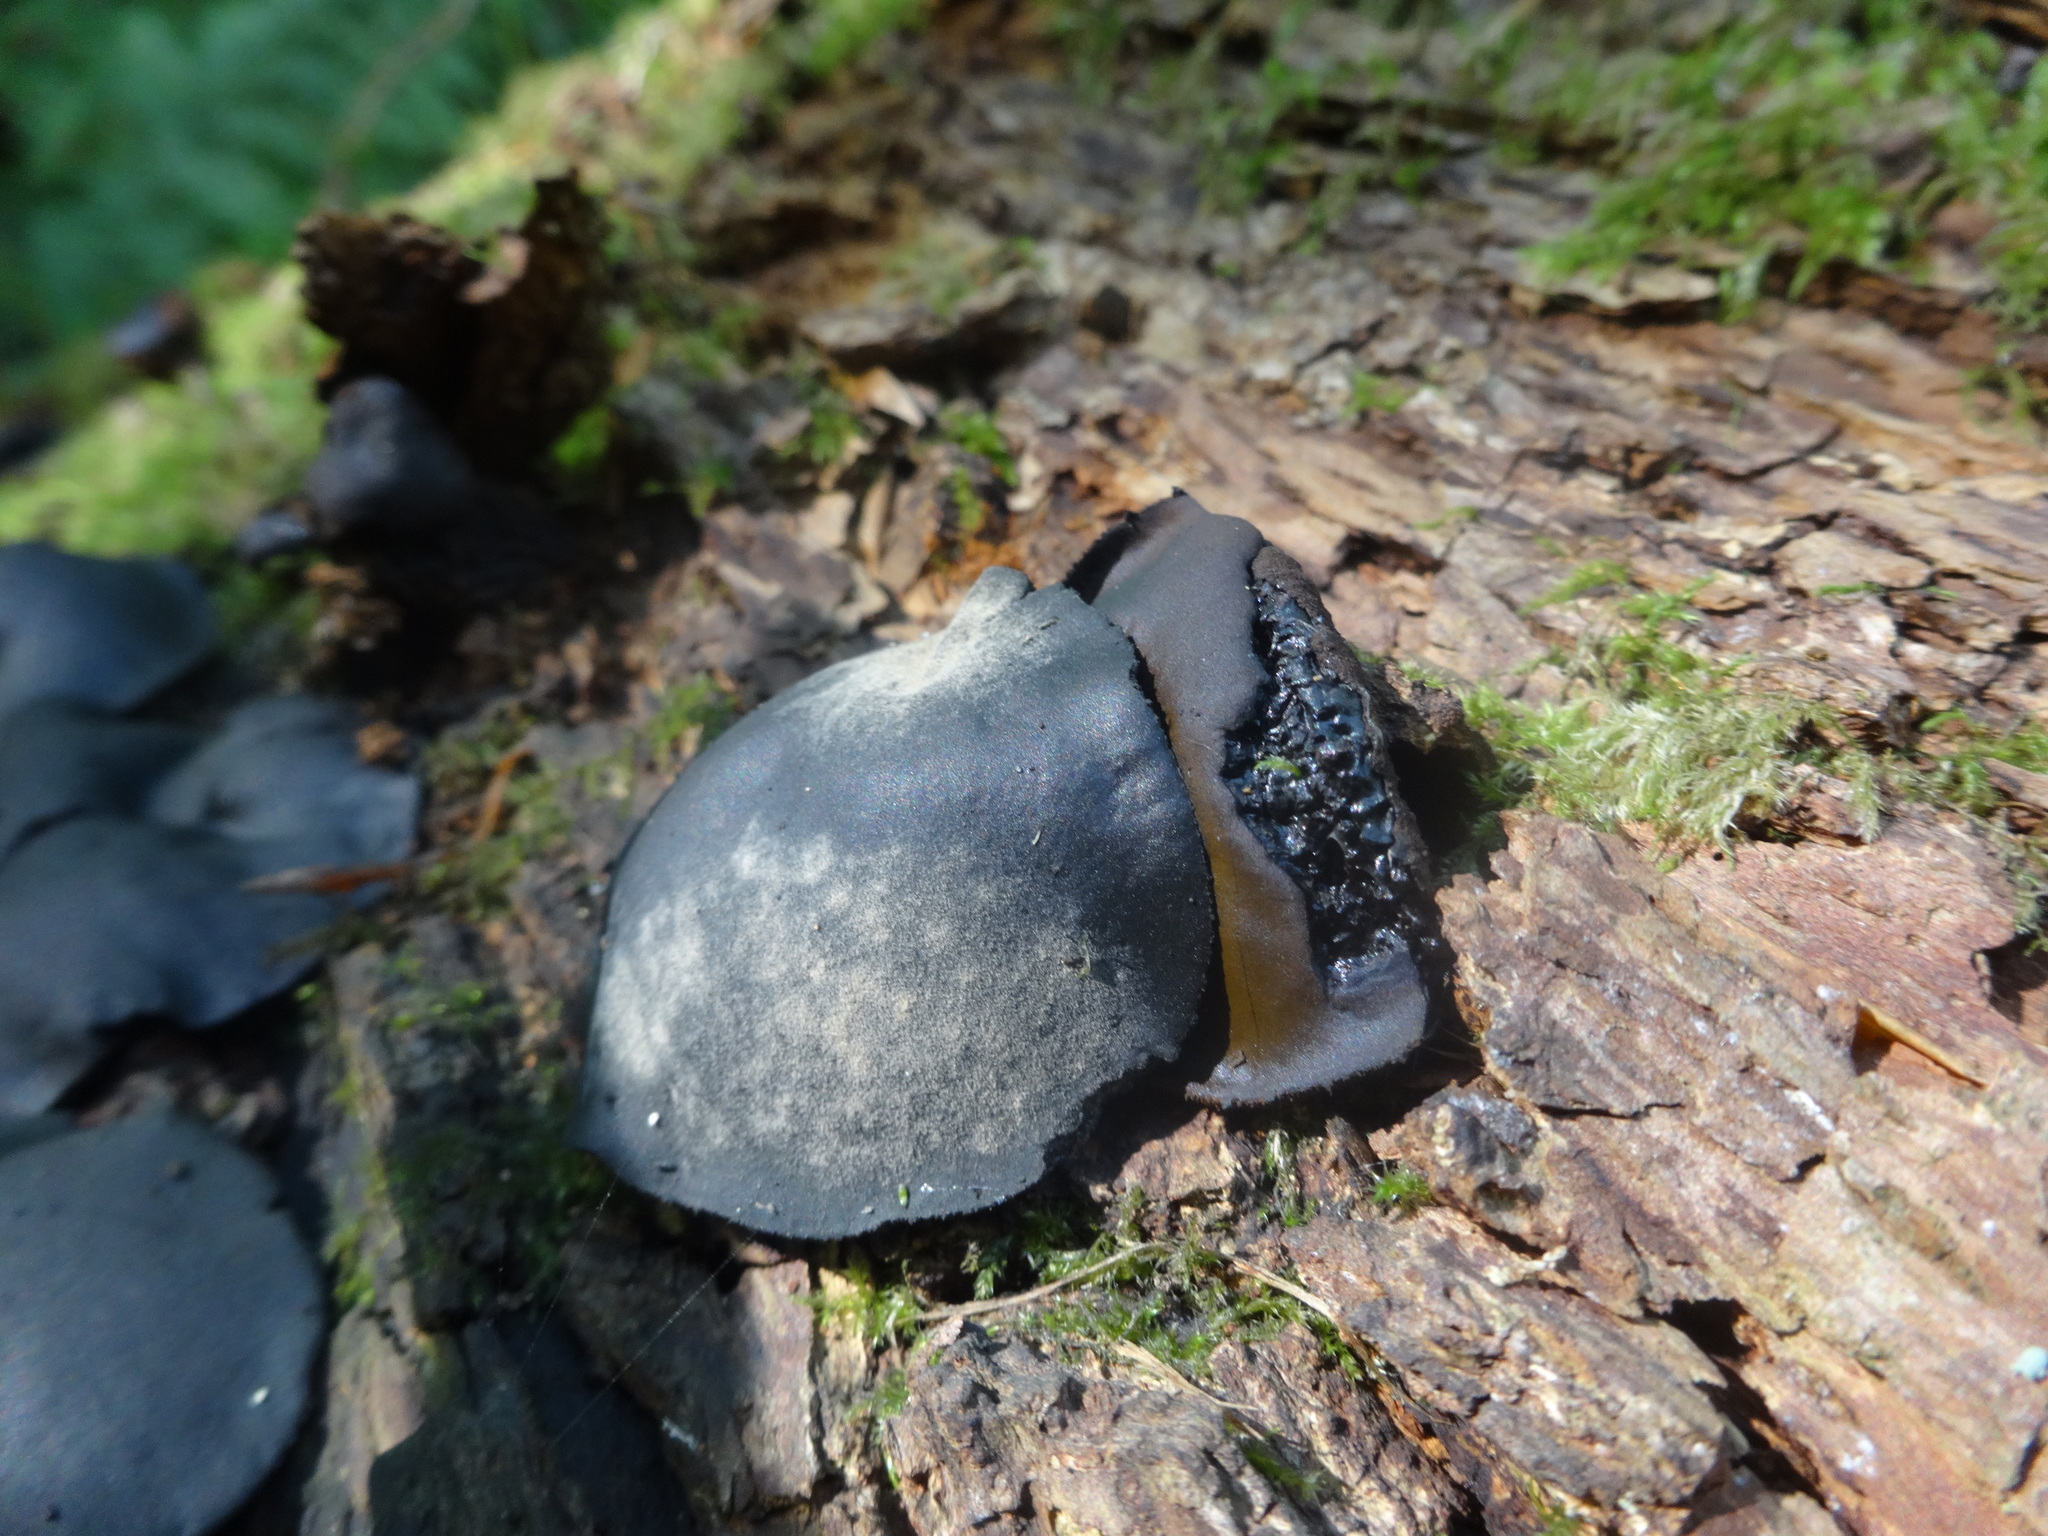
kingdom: Fungi
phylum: Ascomycota
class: Leotiomycetes
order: Phacidiales
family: Phacidiaceae
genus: Bulgaria
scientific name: Bulgaria inquinans
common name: Black bulgar
